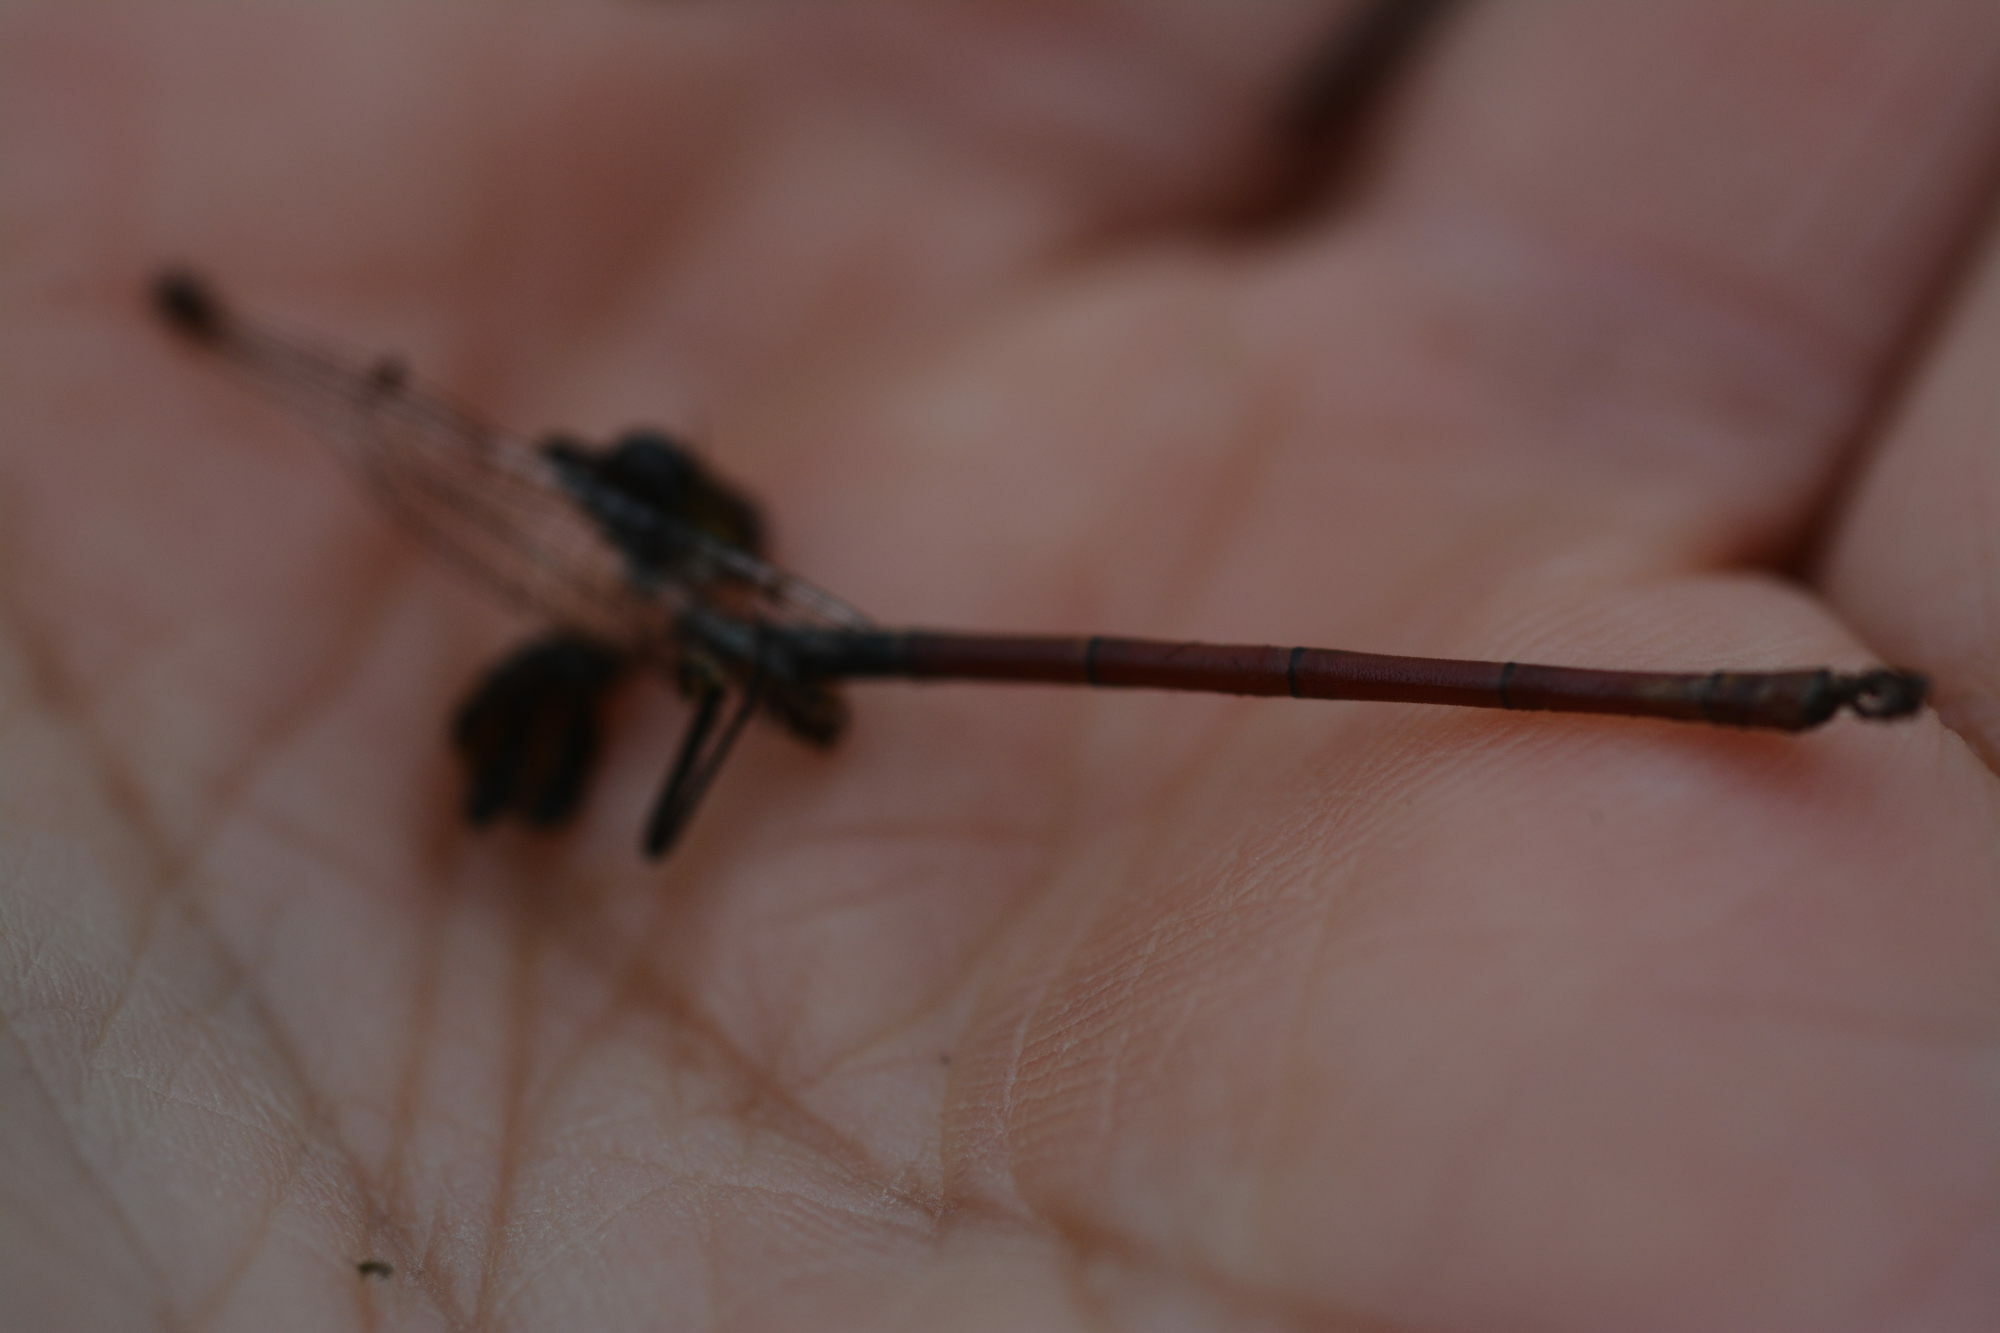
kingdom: Animalia
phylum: Arthropoda
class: Insecta
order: Odonata
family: Coenagrionidae
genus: Pyrrhosoma
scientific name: Pyrrhosoma nymphula
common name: Large red damsel
